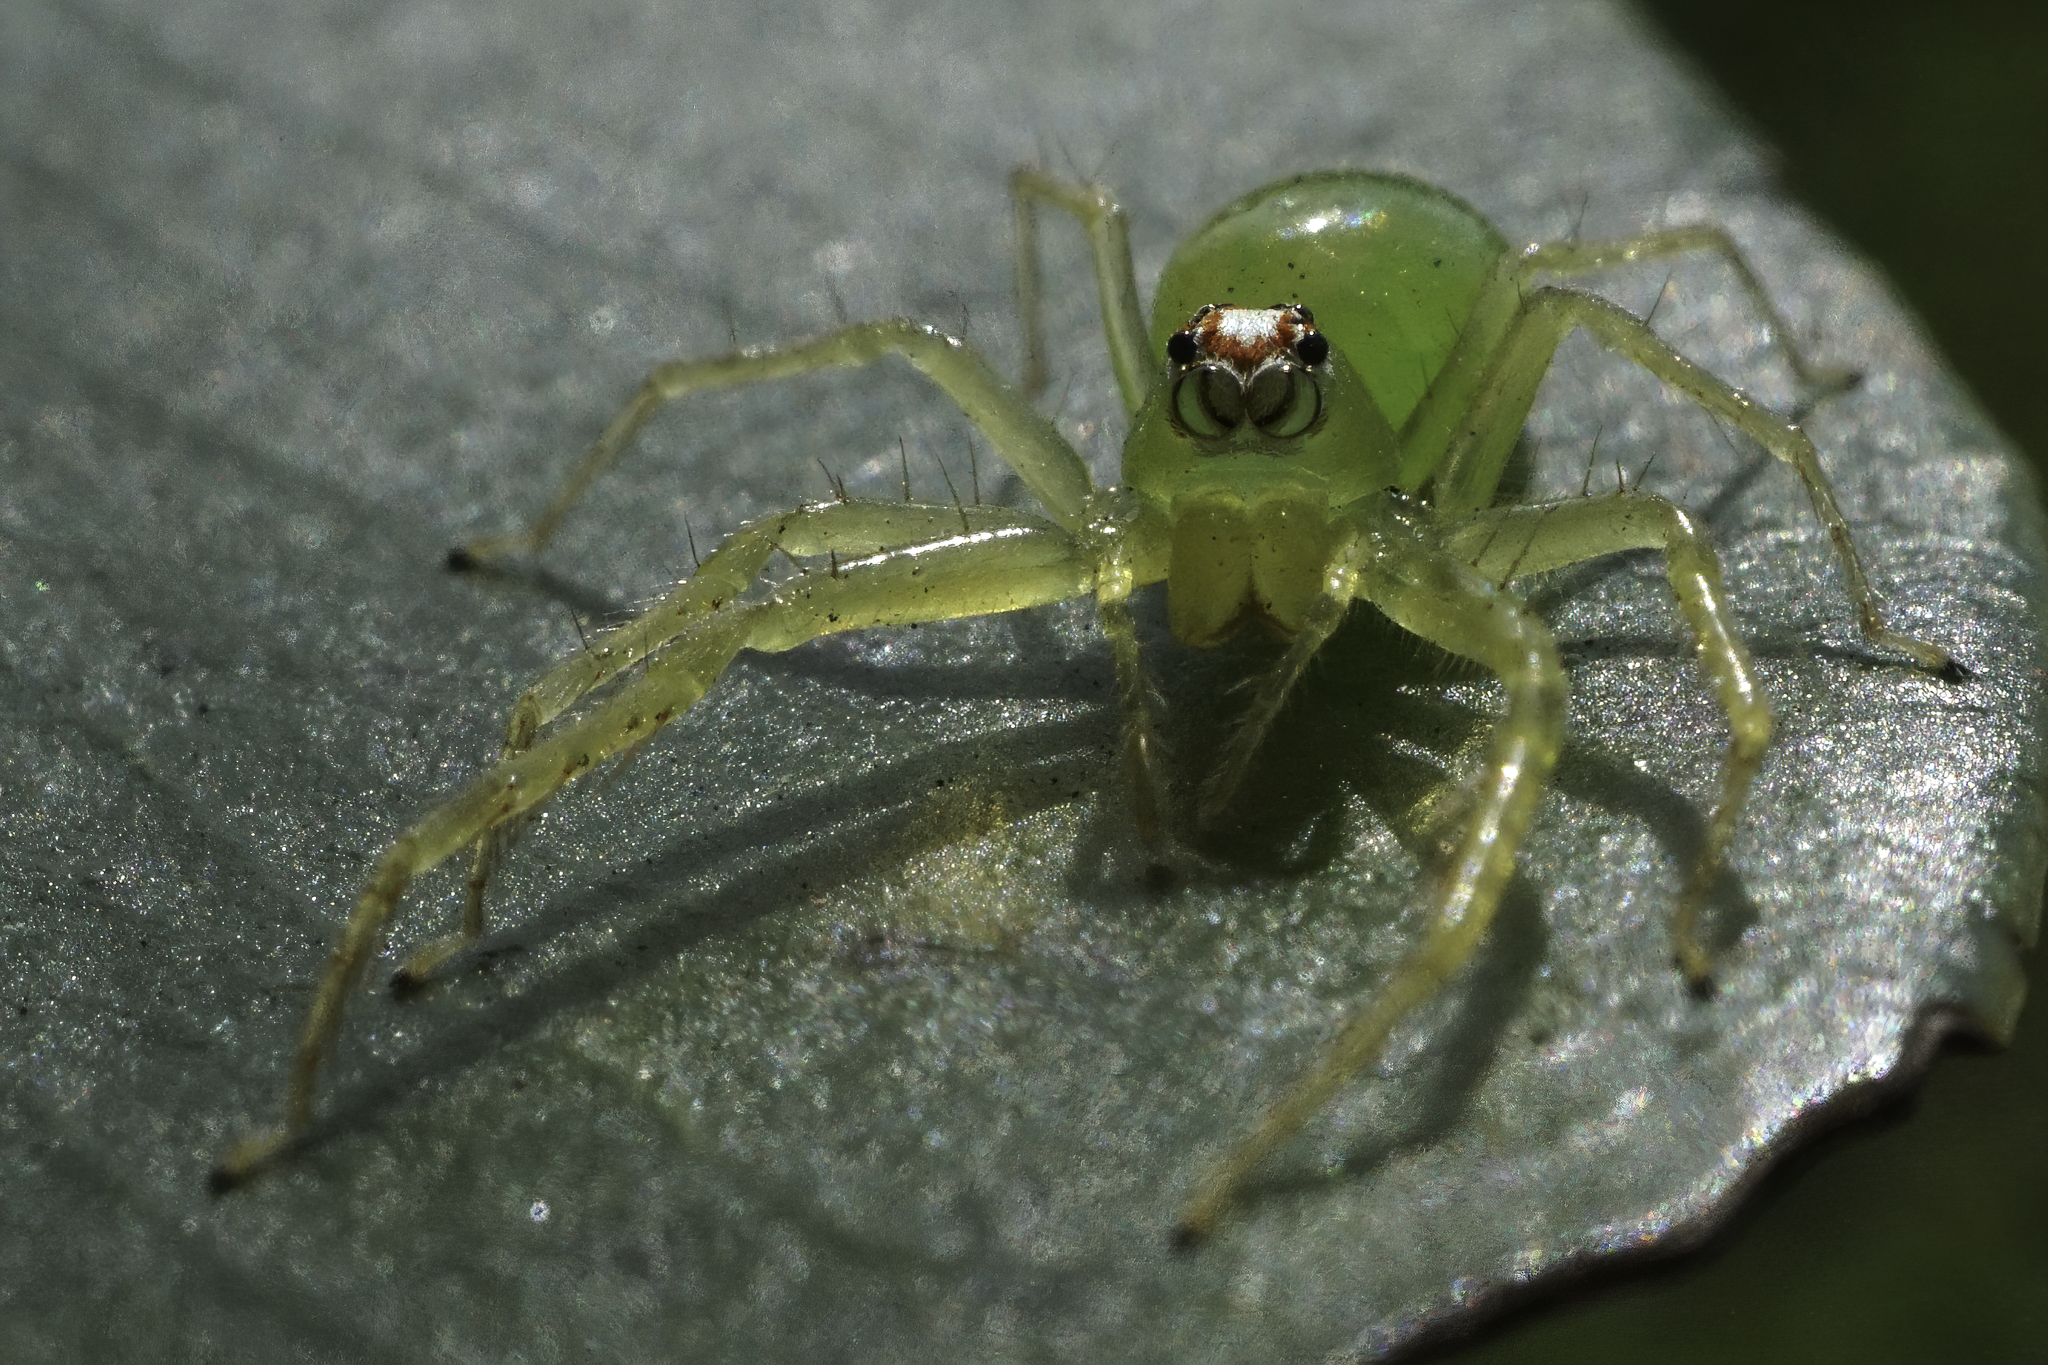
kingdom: Animalia
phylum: Arthropoda
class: Arachnida
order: Araneae
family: Salticidae
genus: Lyssomanes
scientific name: Lyssomanes viridis
